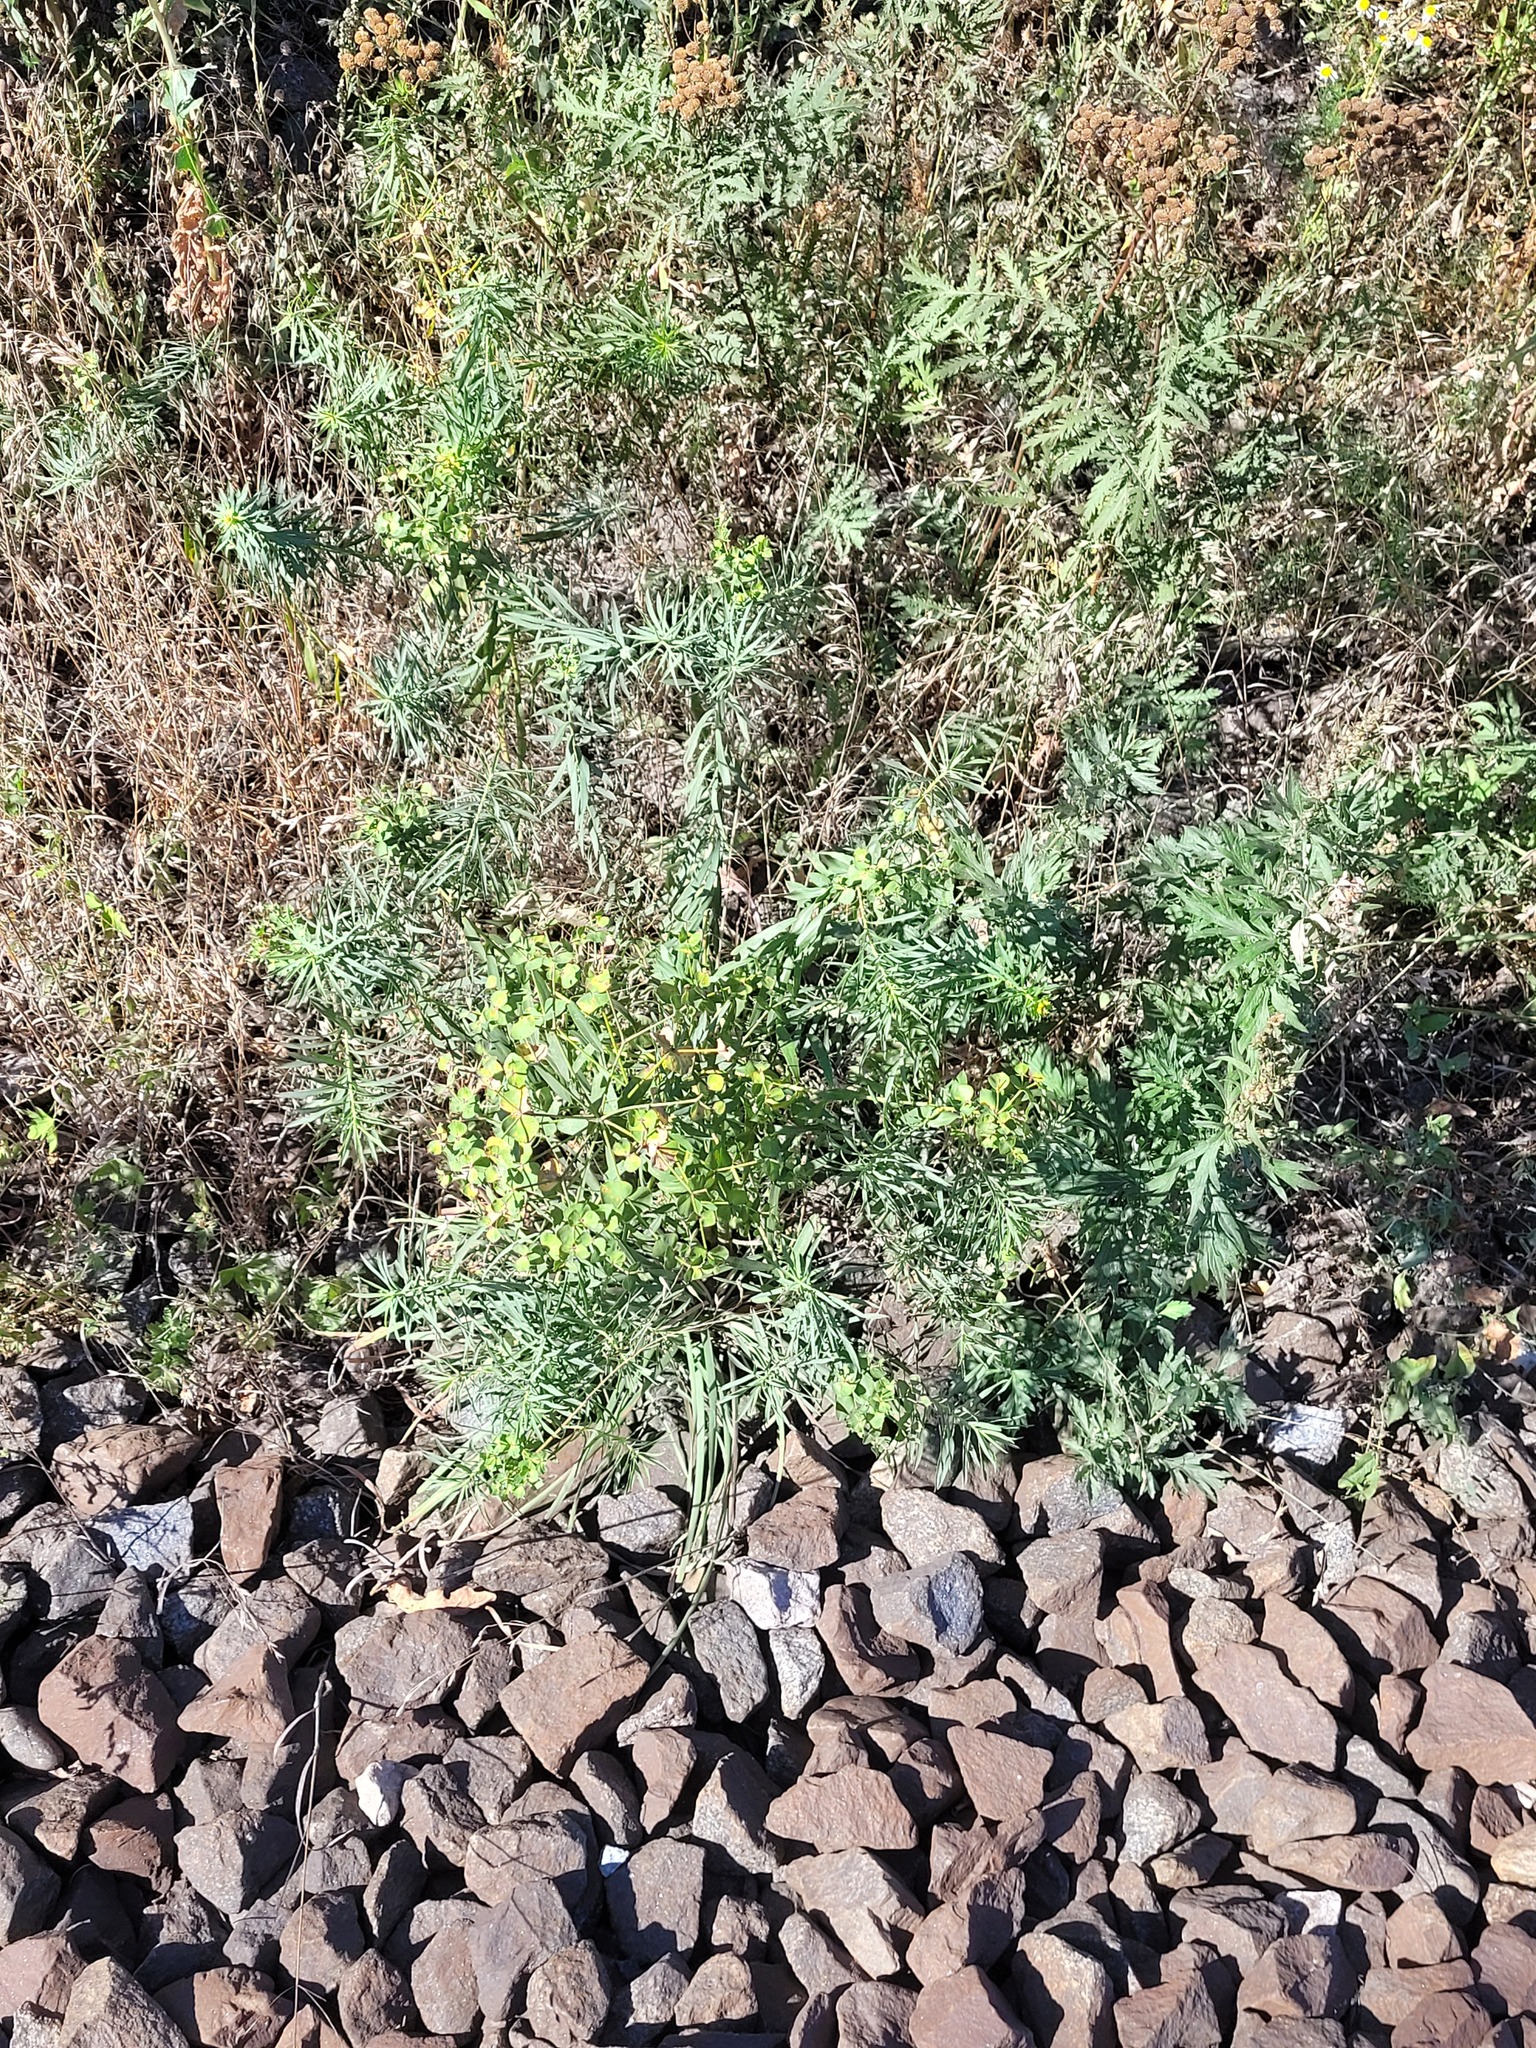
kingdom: Plantae
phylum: Tracheophyta
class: Magnoliopsida
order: Malpighiales
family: Euphorbiaceae
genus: Euphorbia
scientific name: Euphorbia virgata
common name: Leafy spurge
